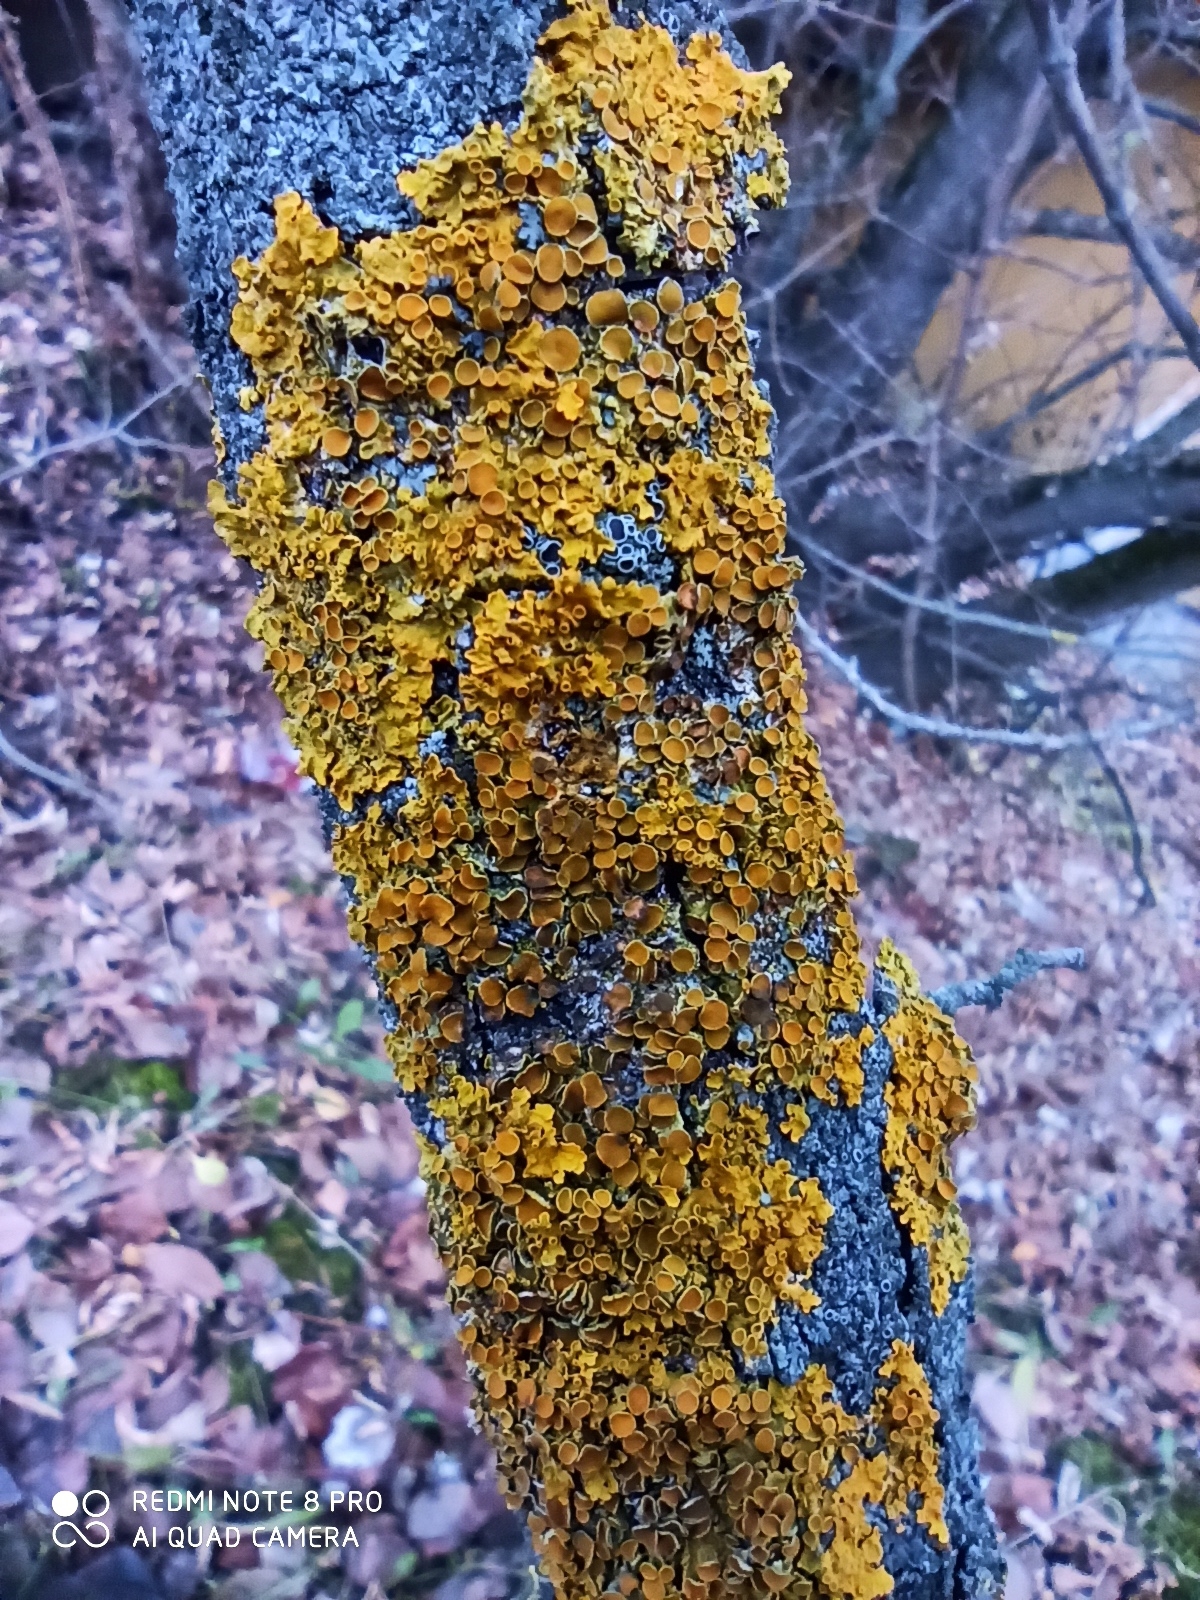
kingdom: Fungi
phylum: Ascomycota
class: Lecanoromycetes
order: Teloschistales
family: Teloschistaceae
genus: Xanthoria
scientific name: Xanthoria parietina
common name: Common orange lichen
